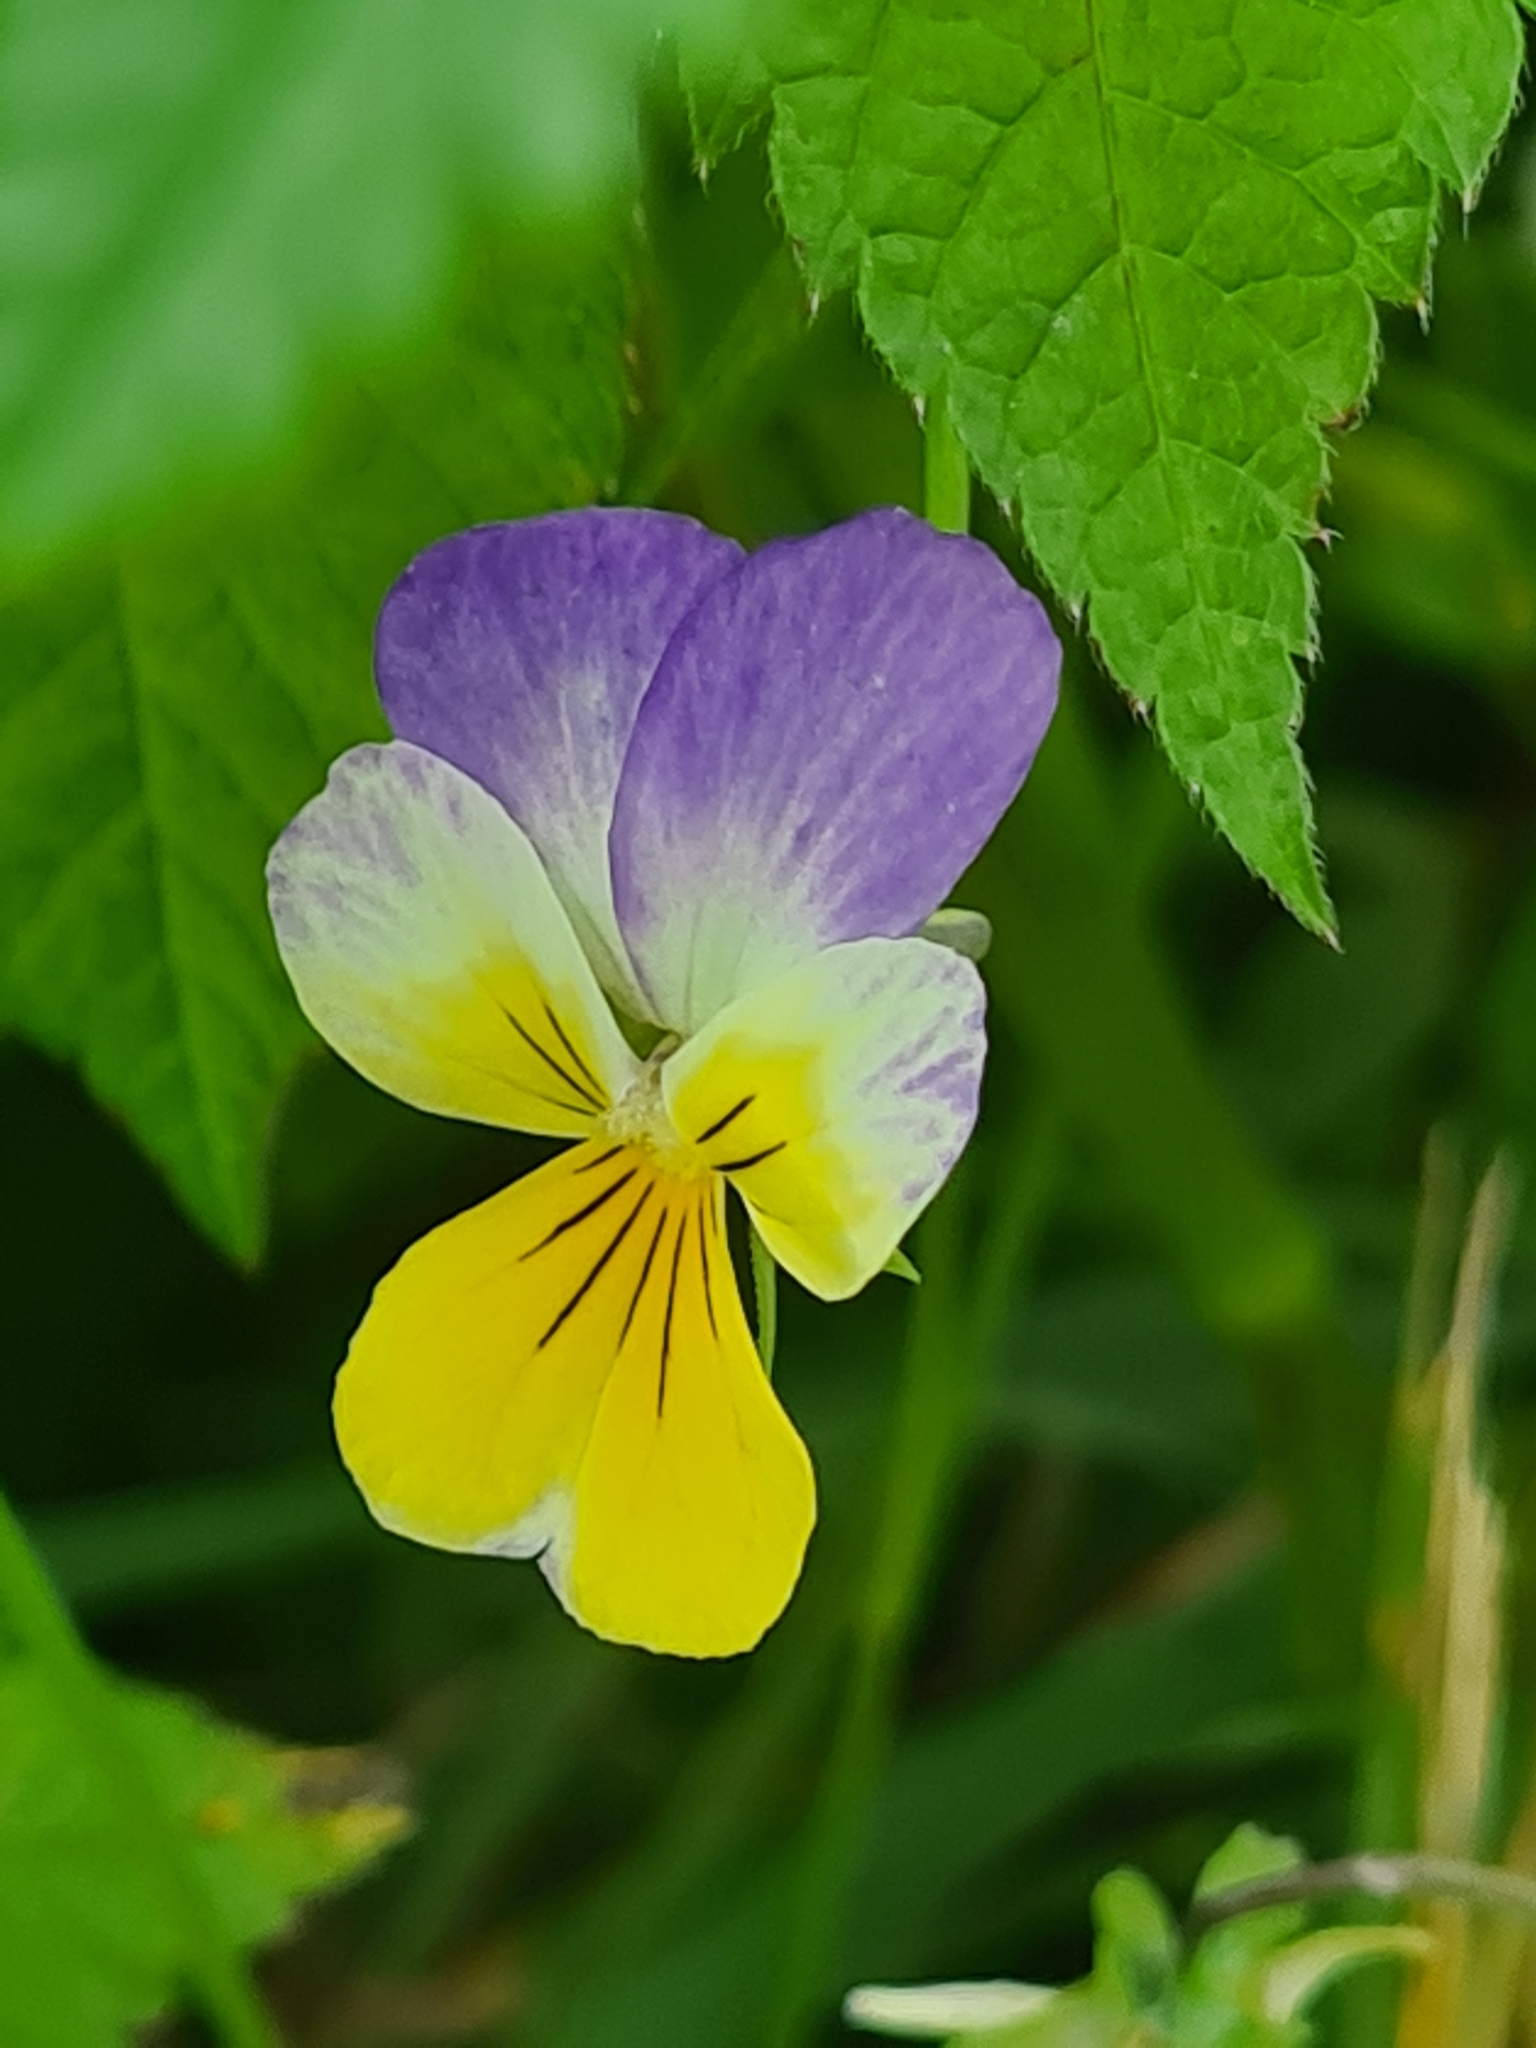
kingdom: Plantae
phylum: Tracheophyta
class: Magnoliopsida
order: Malpighiales
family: Violaceae
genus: Viola
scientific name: Viola tricolor
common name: Pansy
